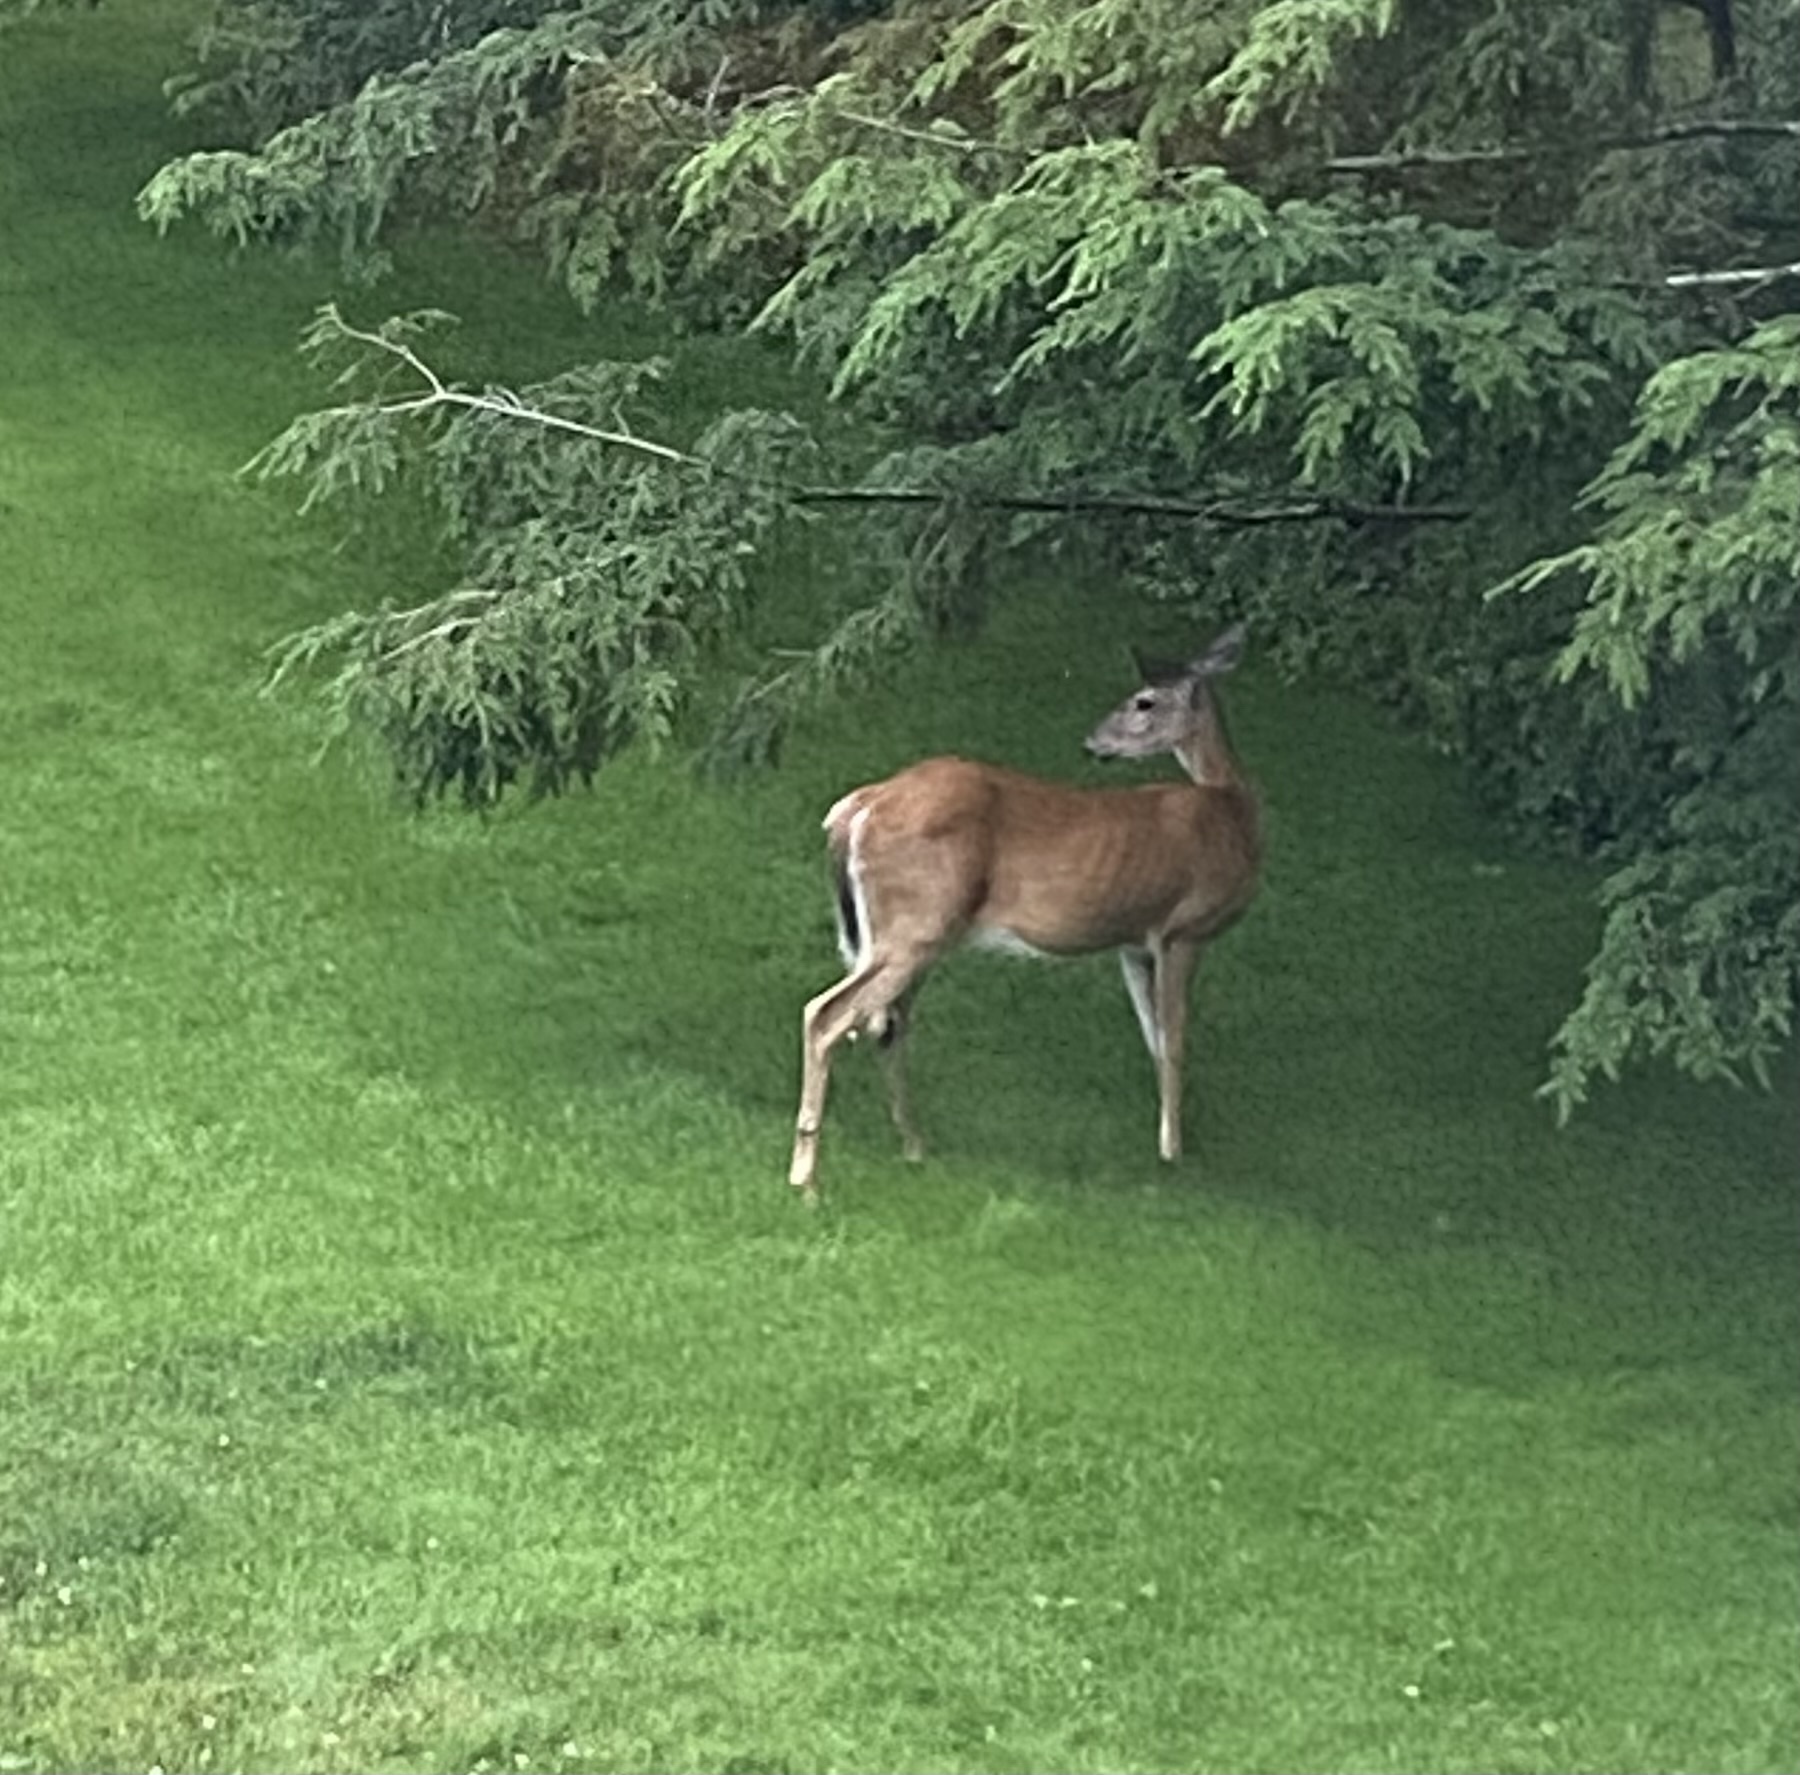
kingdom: Animalia
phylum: Chordata
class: Mammalia
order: Artiodactyla
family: Cervidae
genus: Odocoileus
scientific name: Odocoileus virginianus
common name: White-tailed deer
